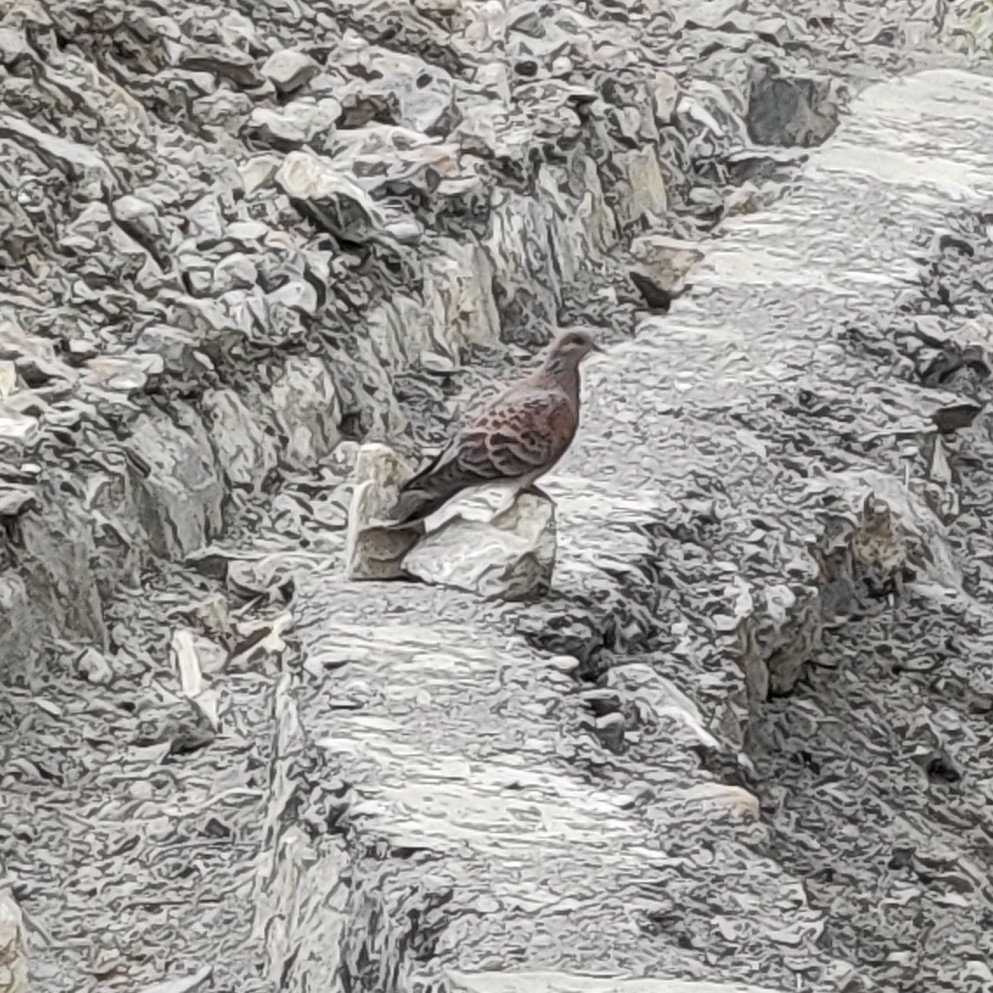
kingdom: Animalia
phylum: Chordata
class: Aves
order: Columbiformes
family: Columbidae
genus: Streptopelia
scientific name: Streptopelia orientalis
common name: Oriental turtle dove
